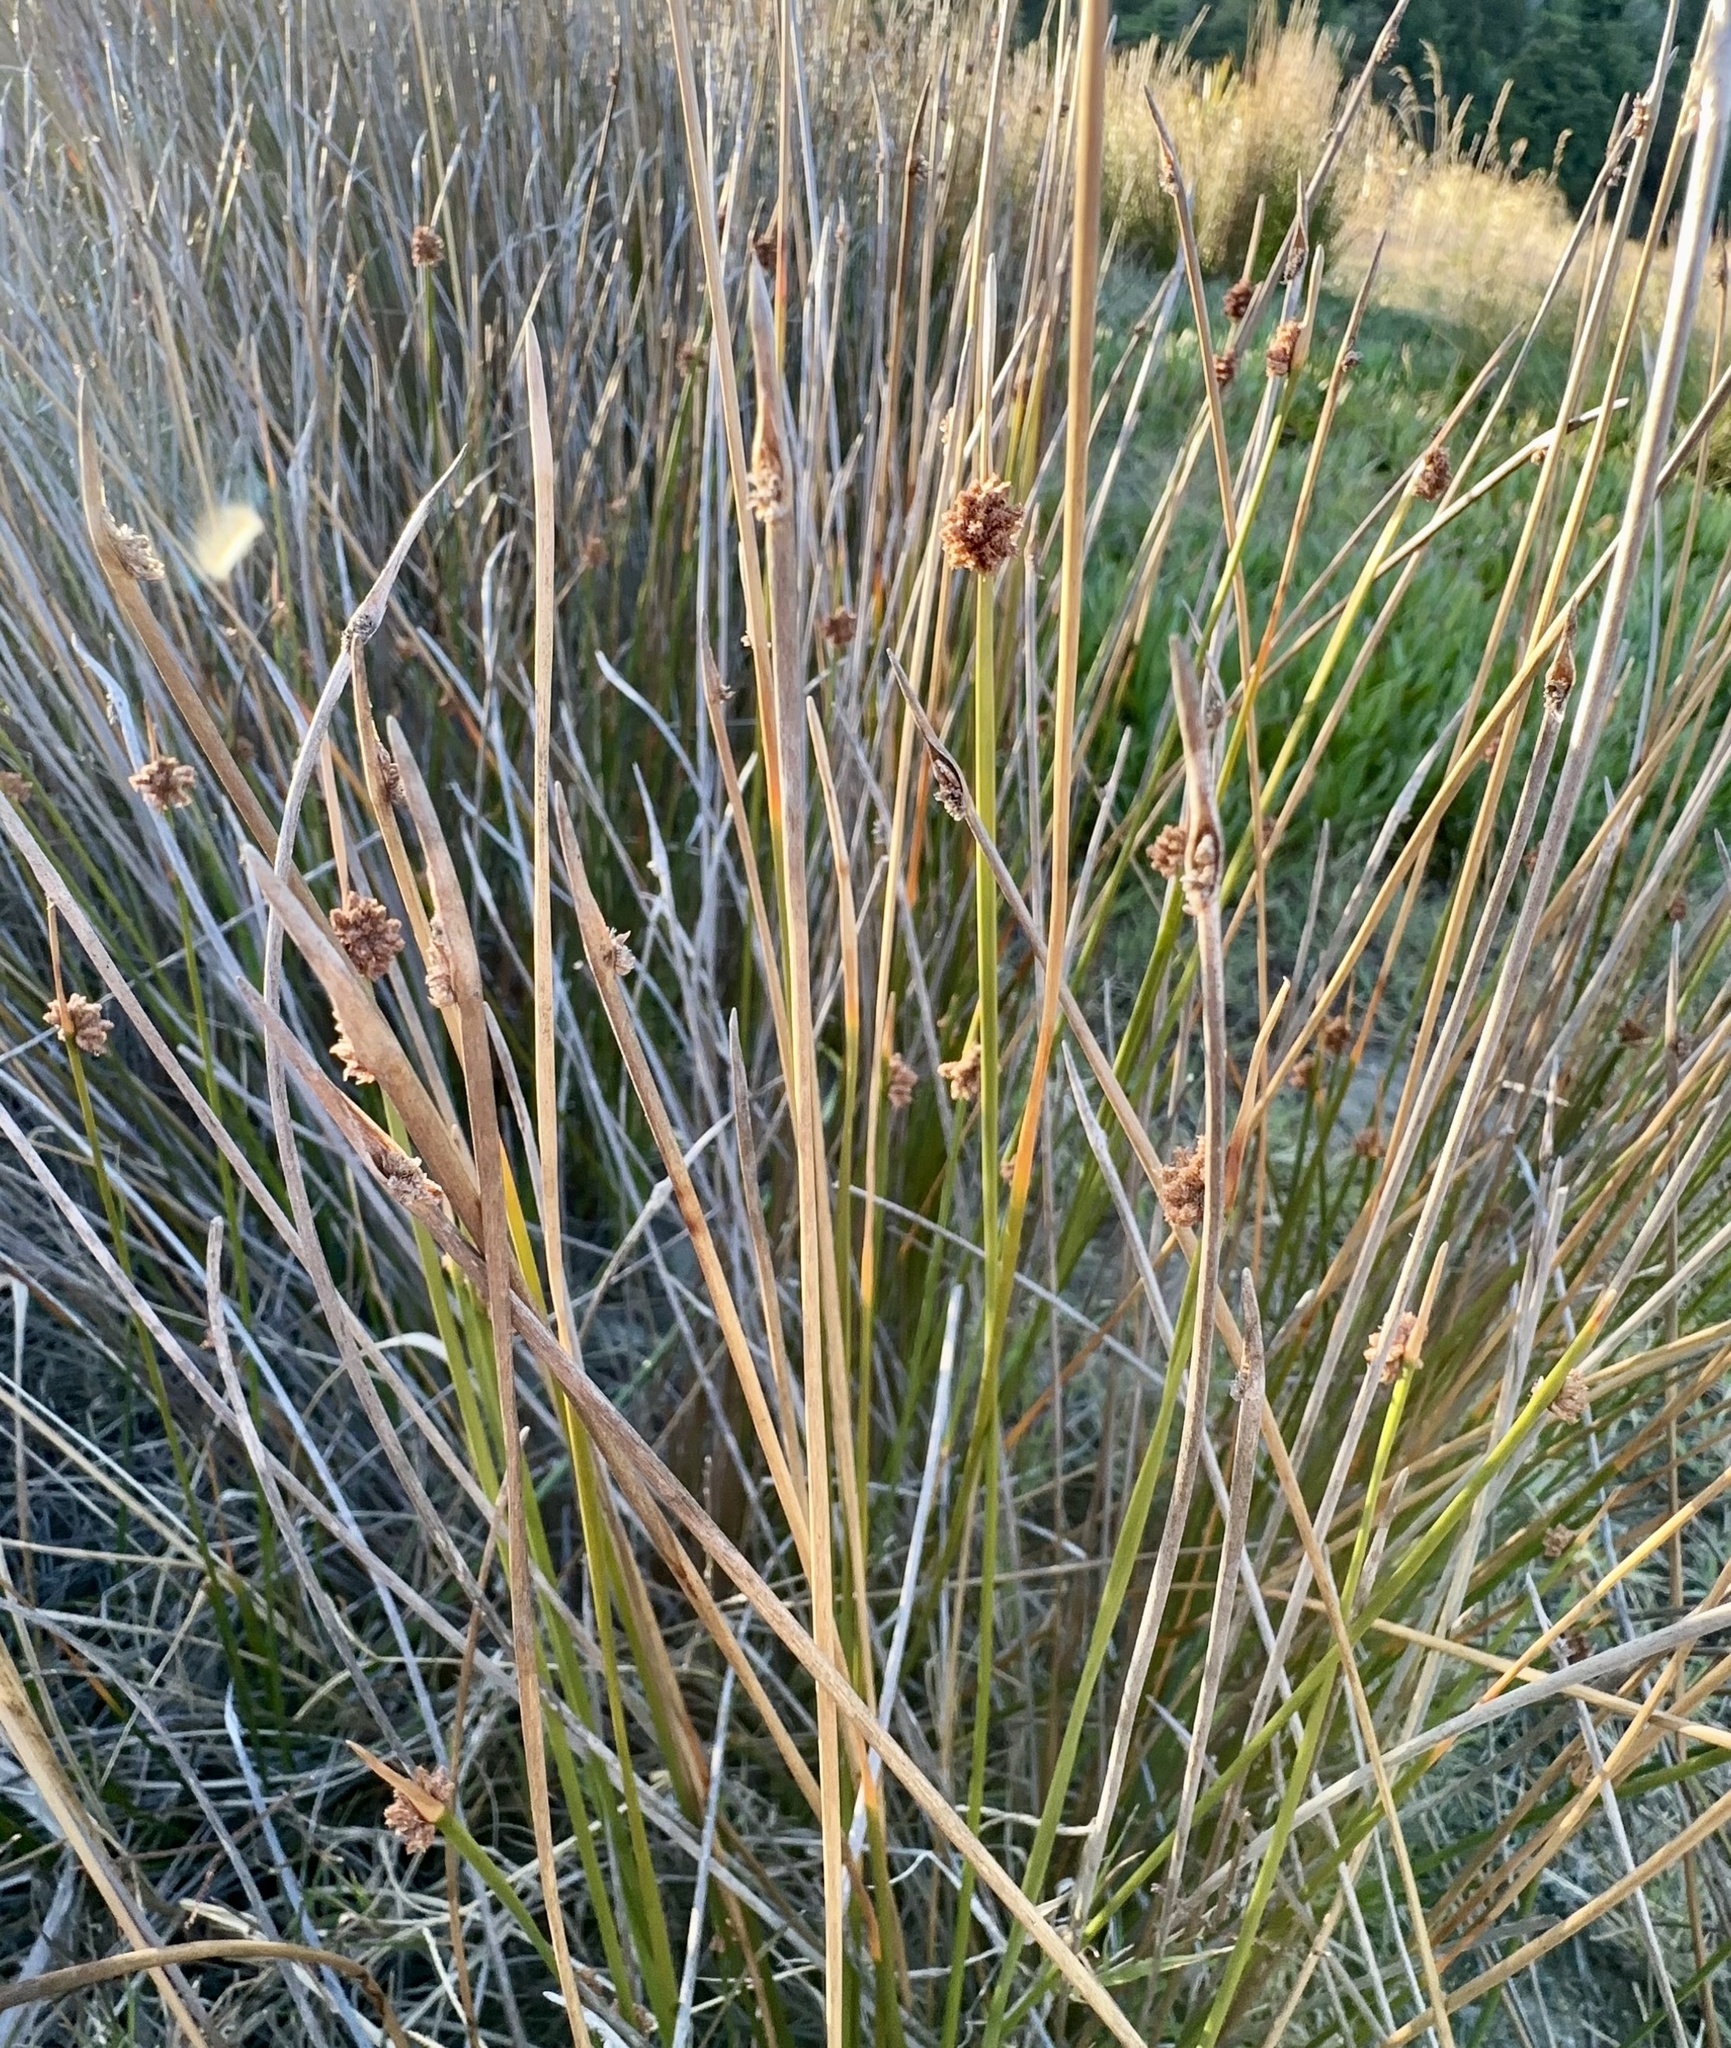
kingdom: Plantae
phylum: Tracheophyta
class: Liliopsida
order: Poales
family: Cyperaceae
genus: Ficinia
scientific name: Ficinia nodosa
